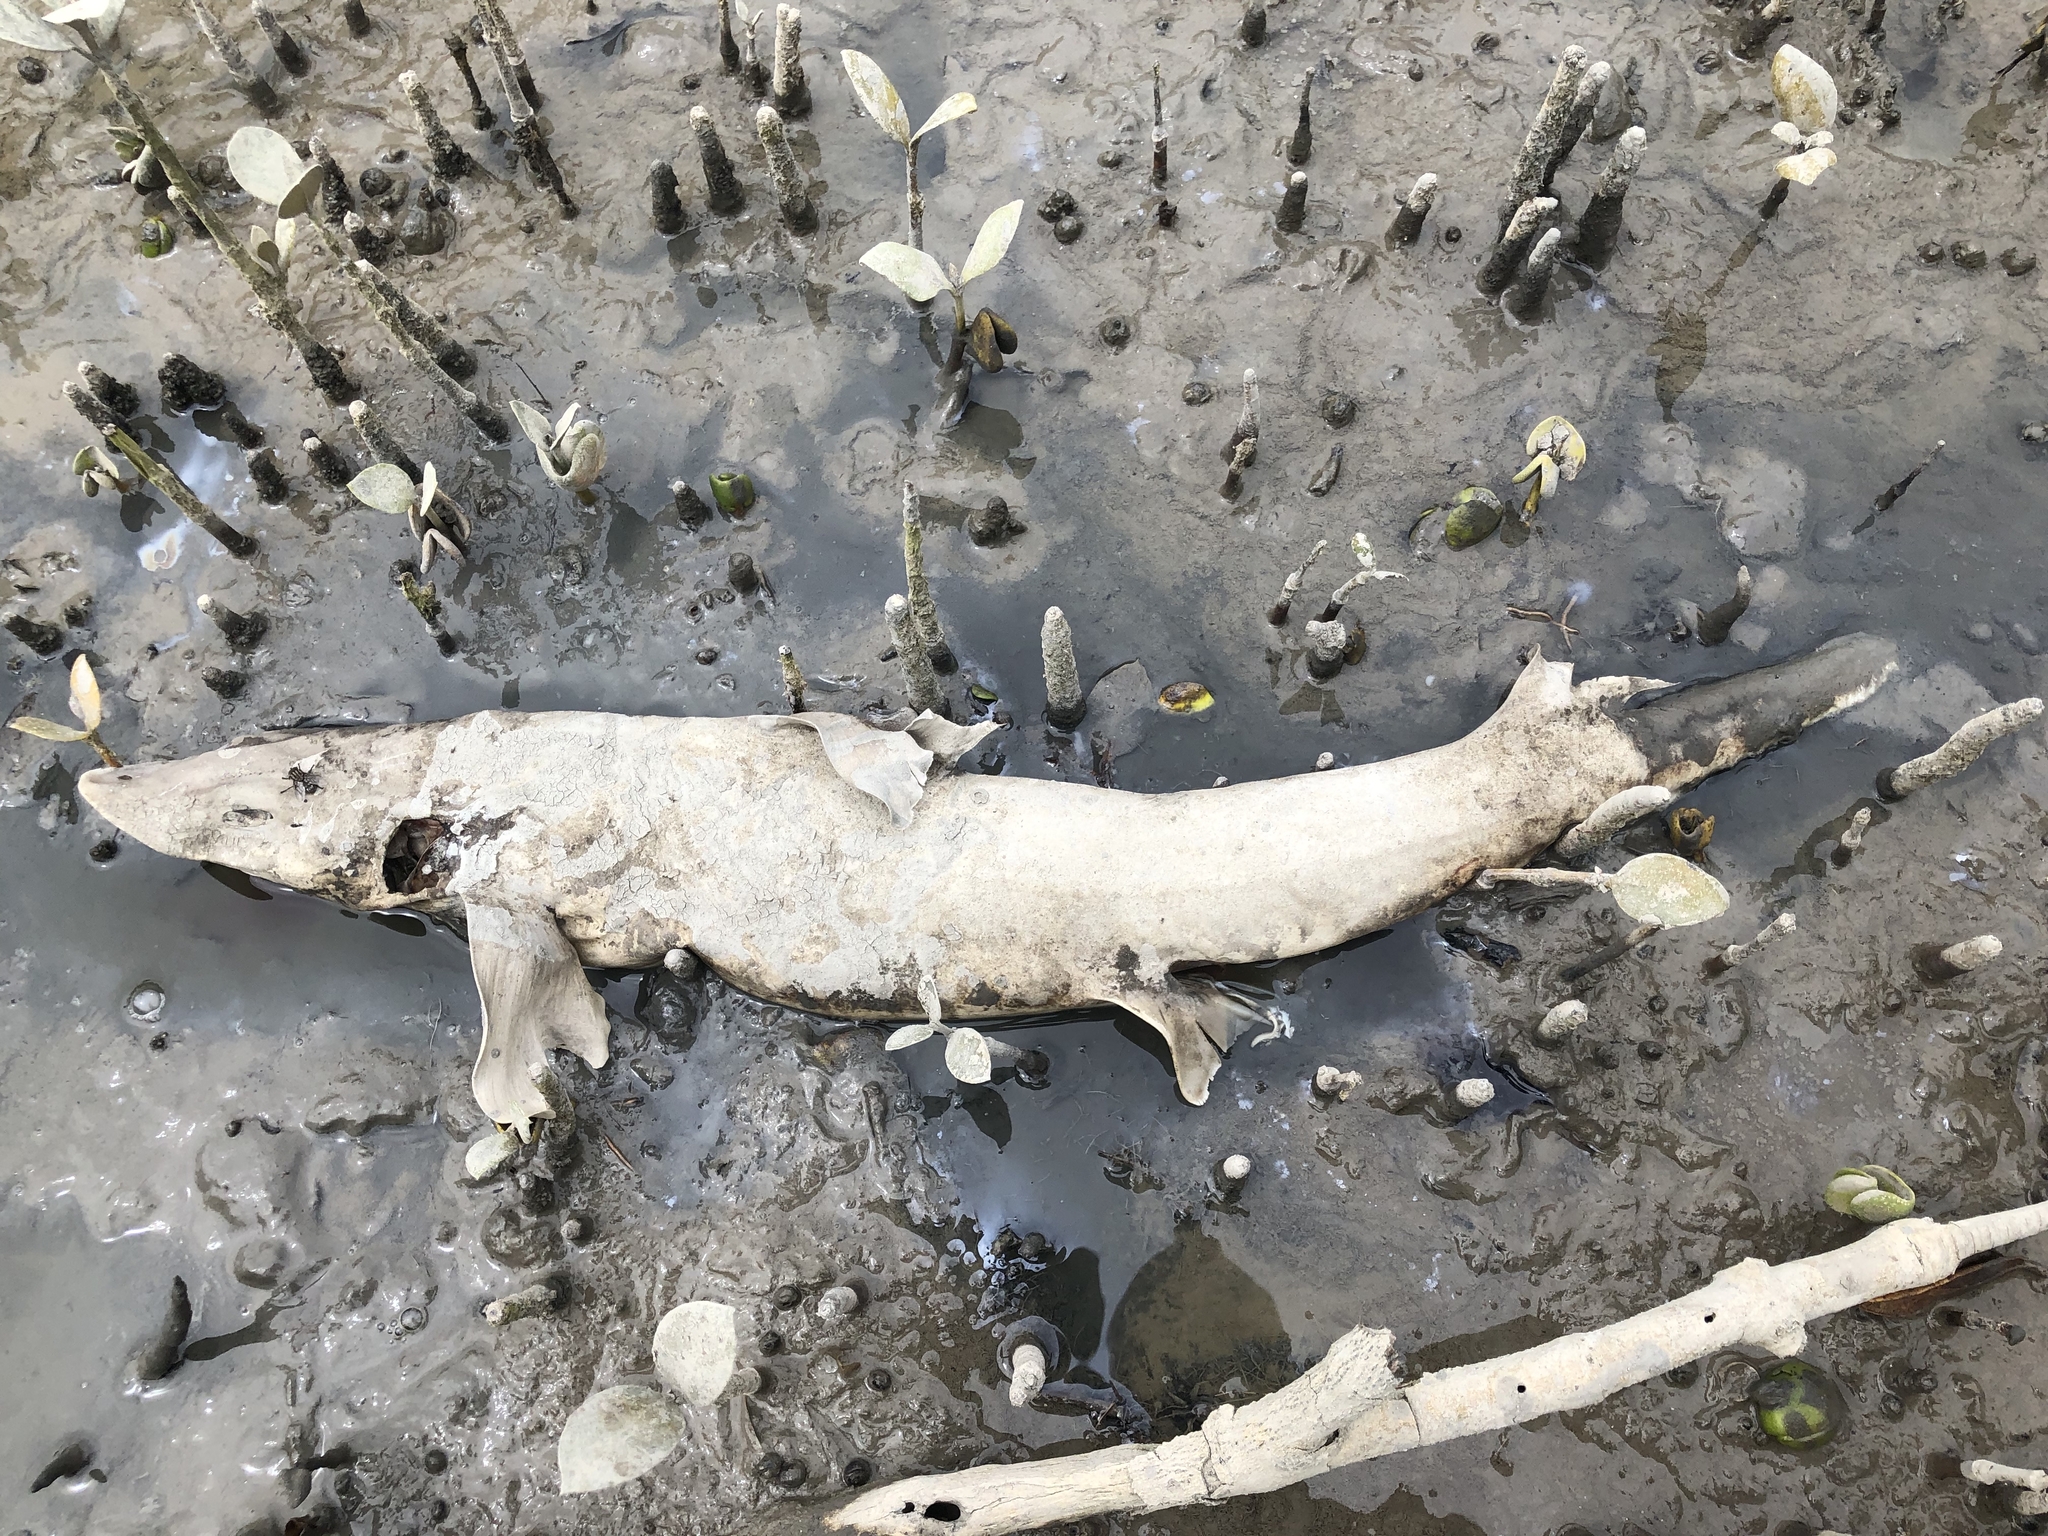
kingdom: Animalia
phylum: Chordata
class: Elasmobranchii
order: Carcharhiniformes
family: Triakidae
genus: Mustelus
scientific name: Mustelus lenticulatus
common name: Gummy shark
